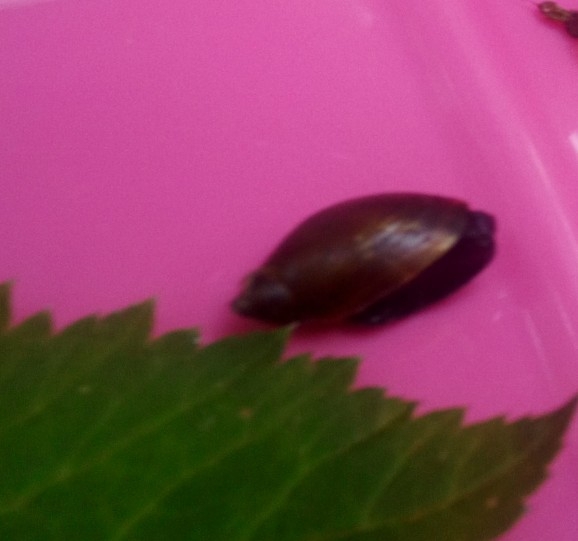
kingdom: Animalia
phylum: Mollusca
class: Gastropoda
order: Stylommatophora
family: Succineidae
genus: Succinea
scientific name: Succinea putris
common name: European ambersnail
